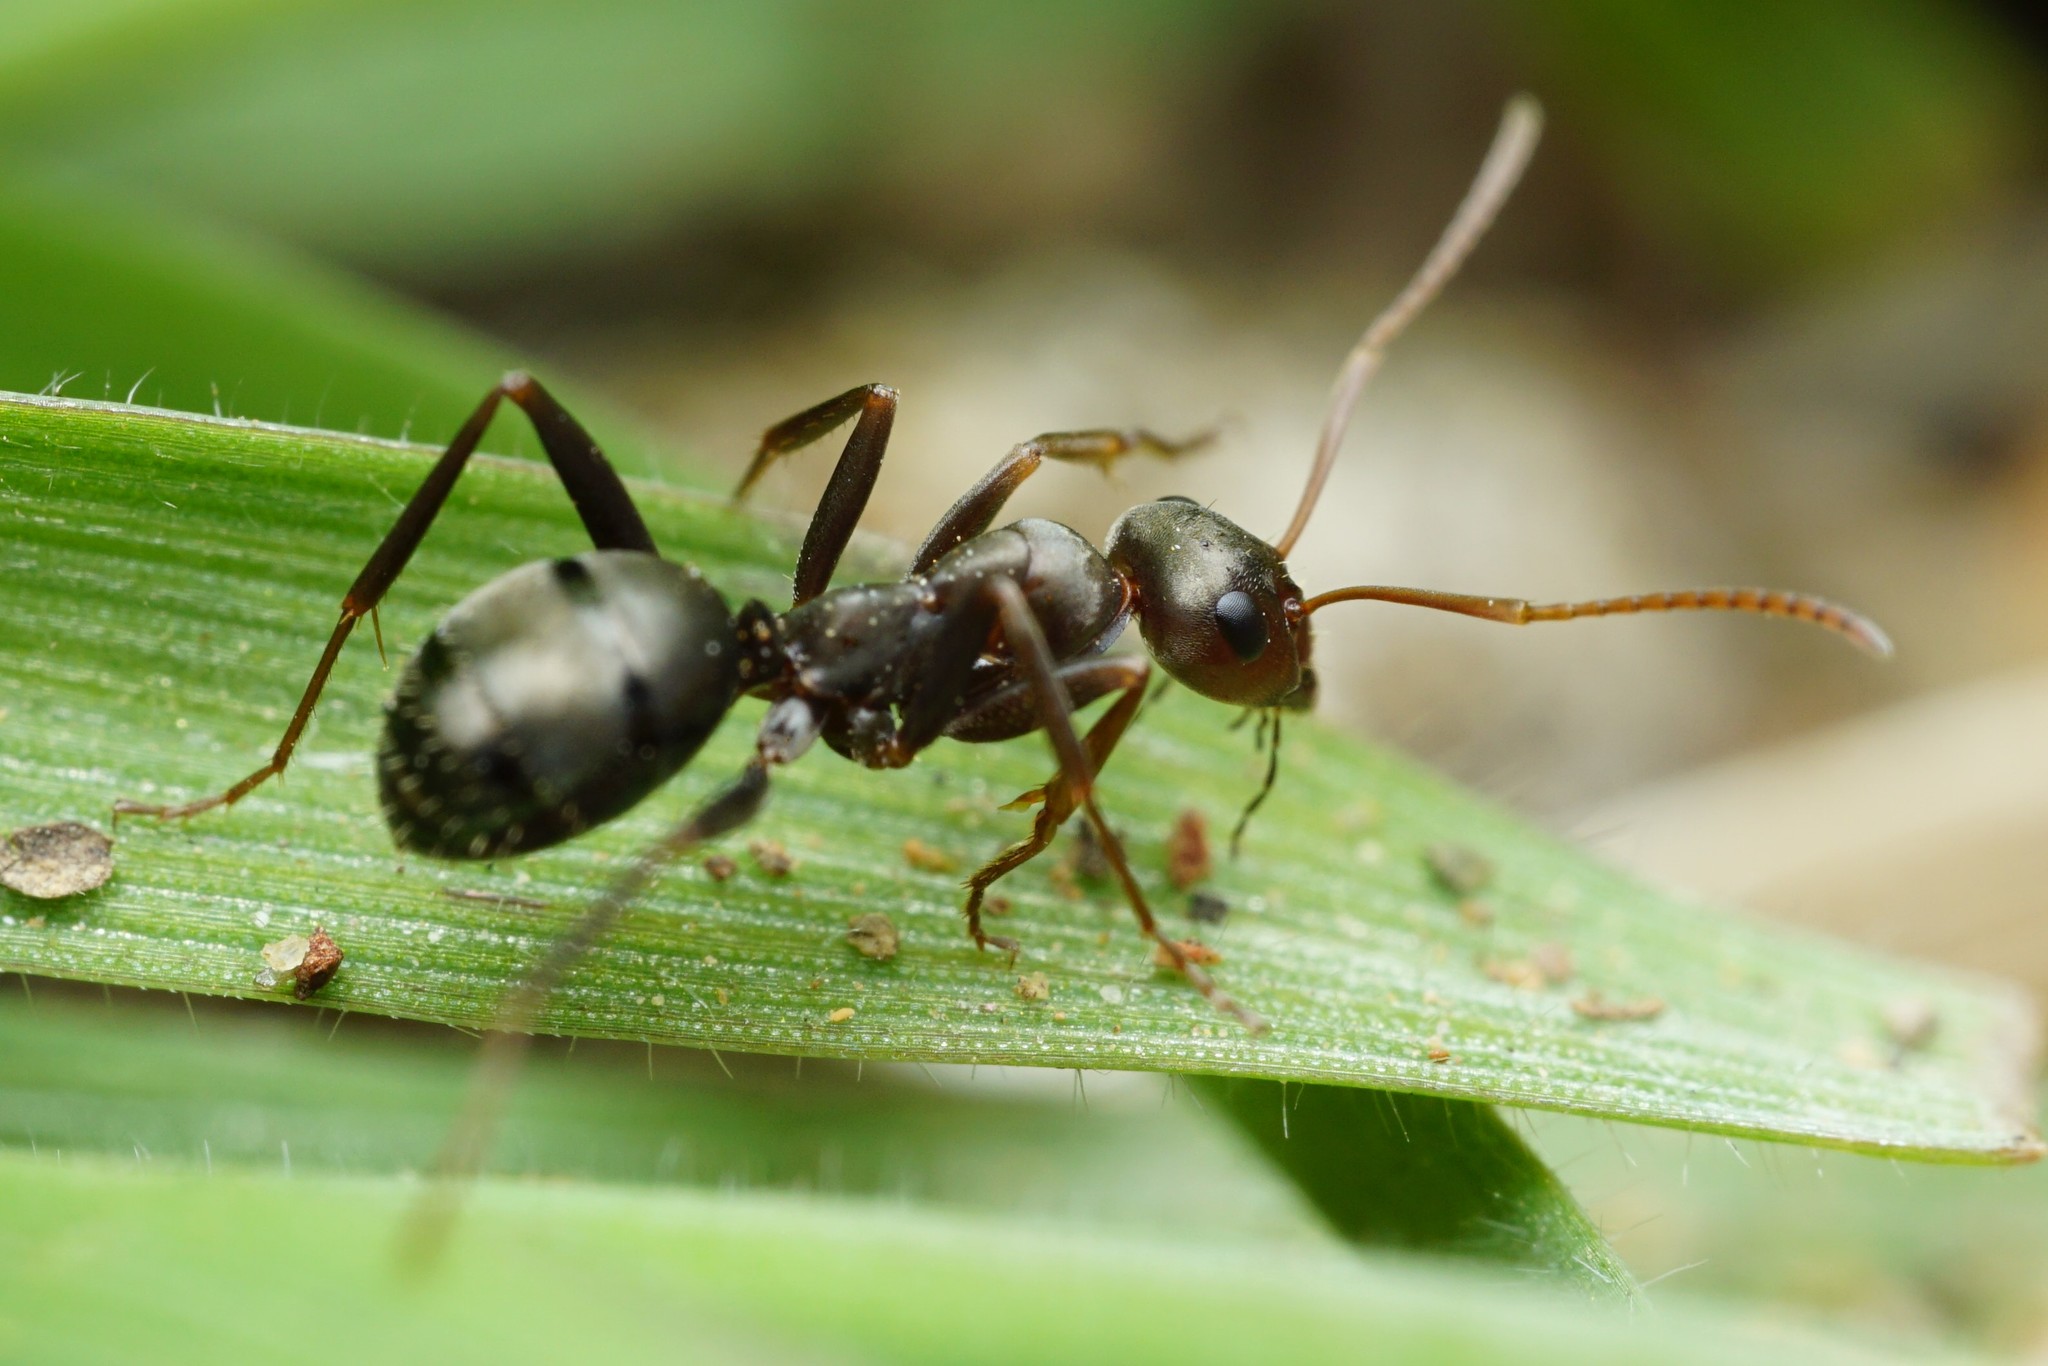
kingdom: Animalia
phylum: Arthropoda
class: Insecta
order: Hymenoptera
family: Formicidae
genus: Formica
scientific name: Formica gnava
